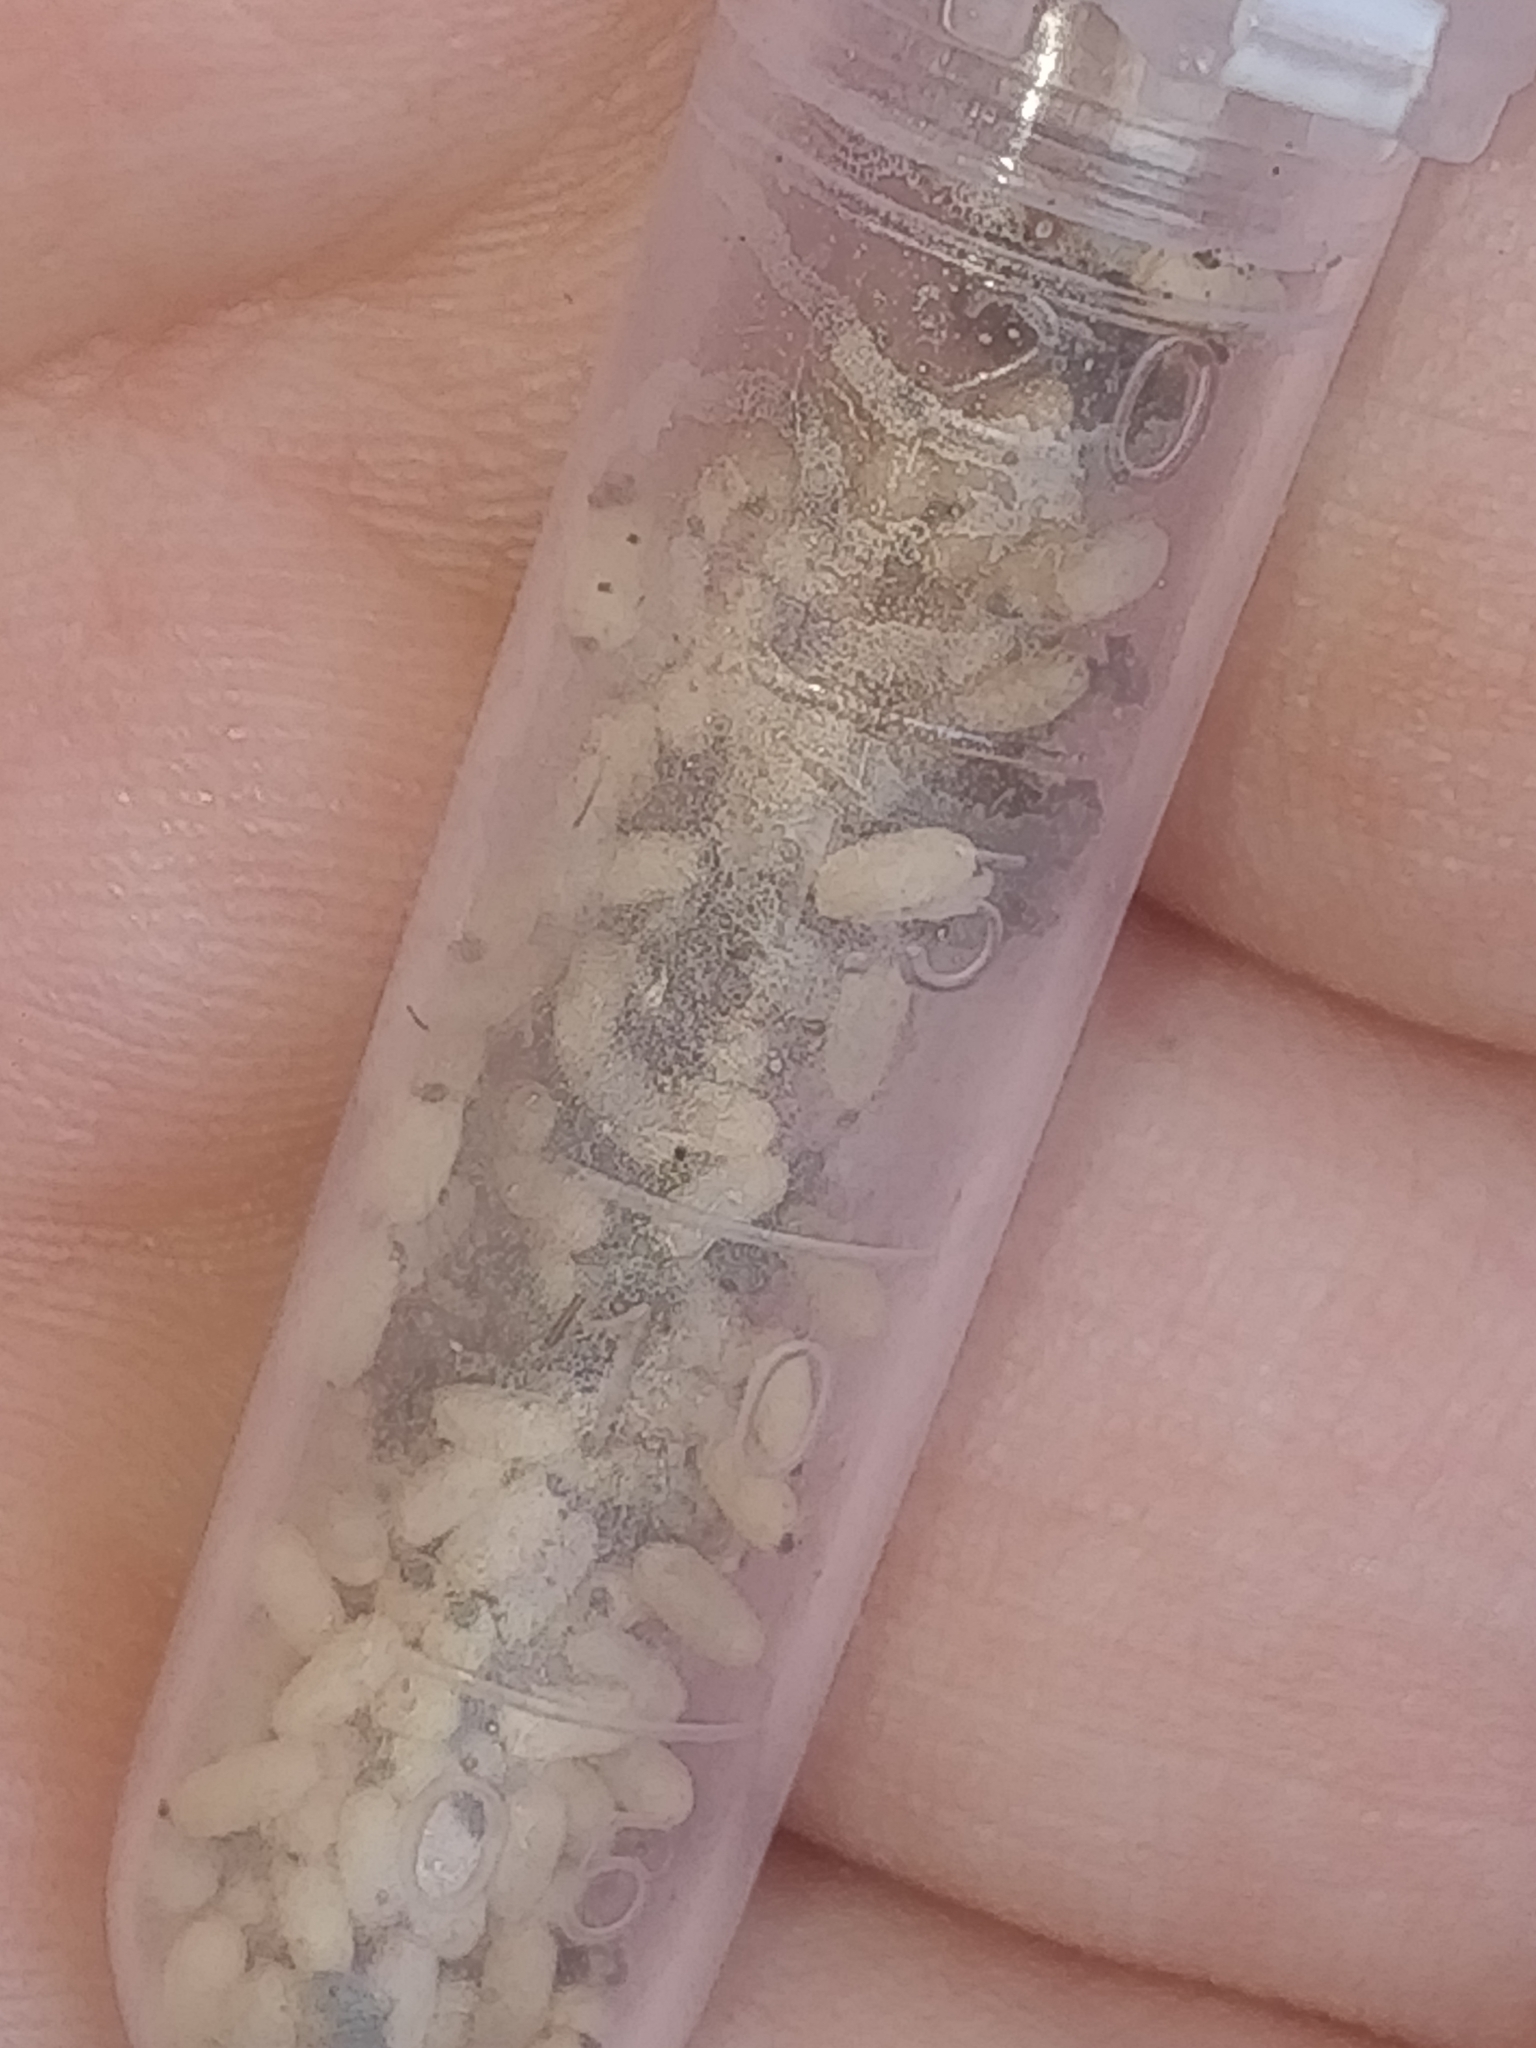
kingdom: Animalia
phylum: Arthropoda
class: Insecta
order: Hymenoptera
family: Formicidae
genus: Lasius
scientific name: Lasius americanus
